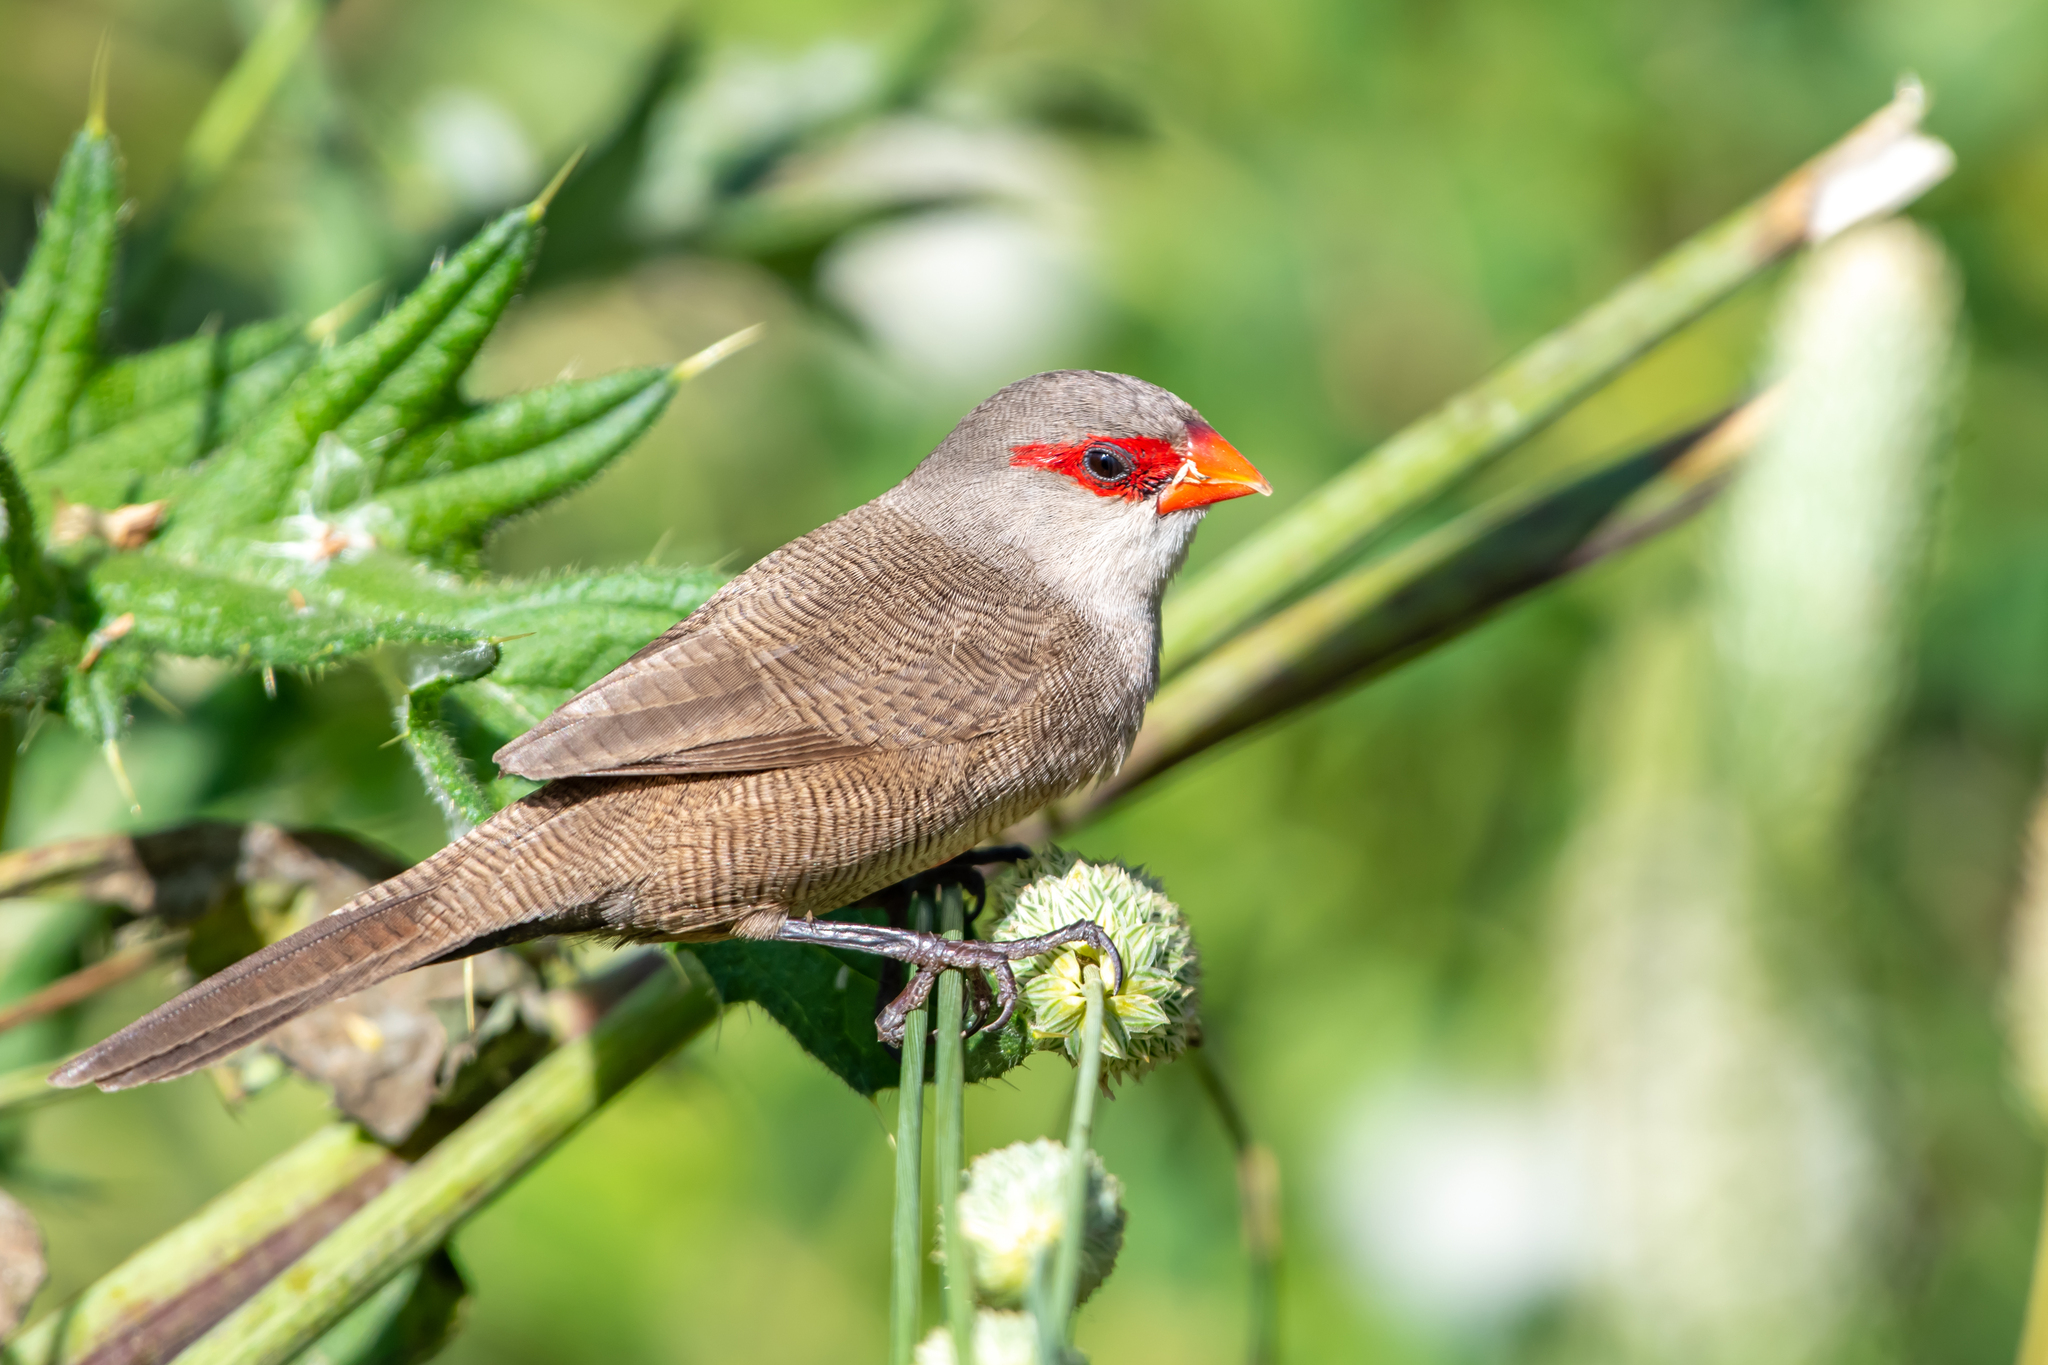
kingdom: Animalia
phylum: Chordata
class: Aves
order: Passeriformes
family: Estrildidae
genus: Estrilda
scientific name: Estrilda astrild
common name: Common waxbill
